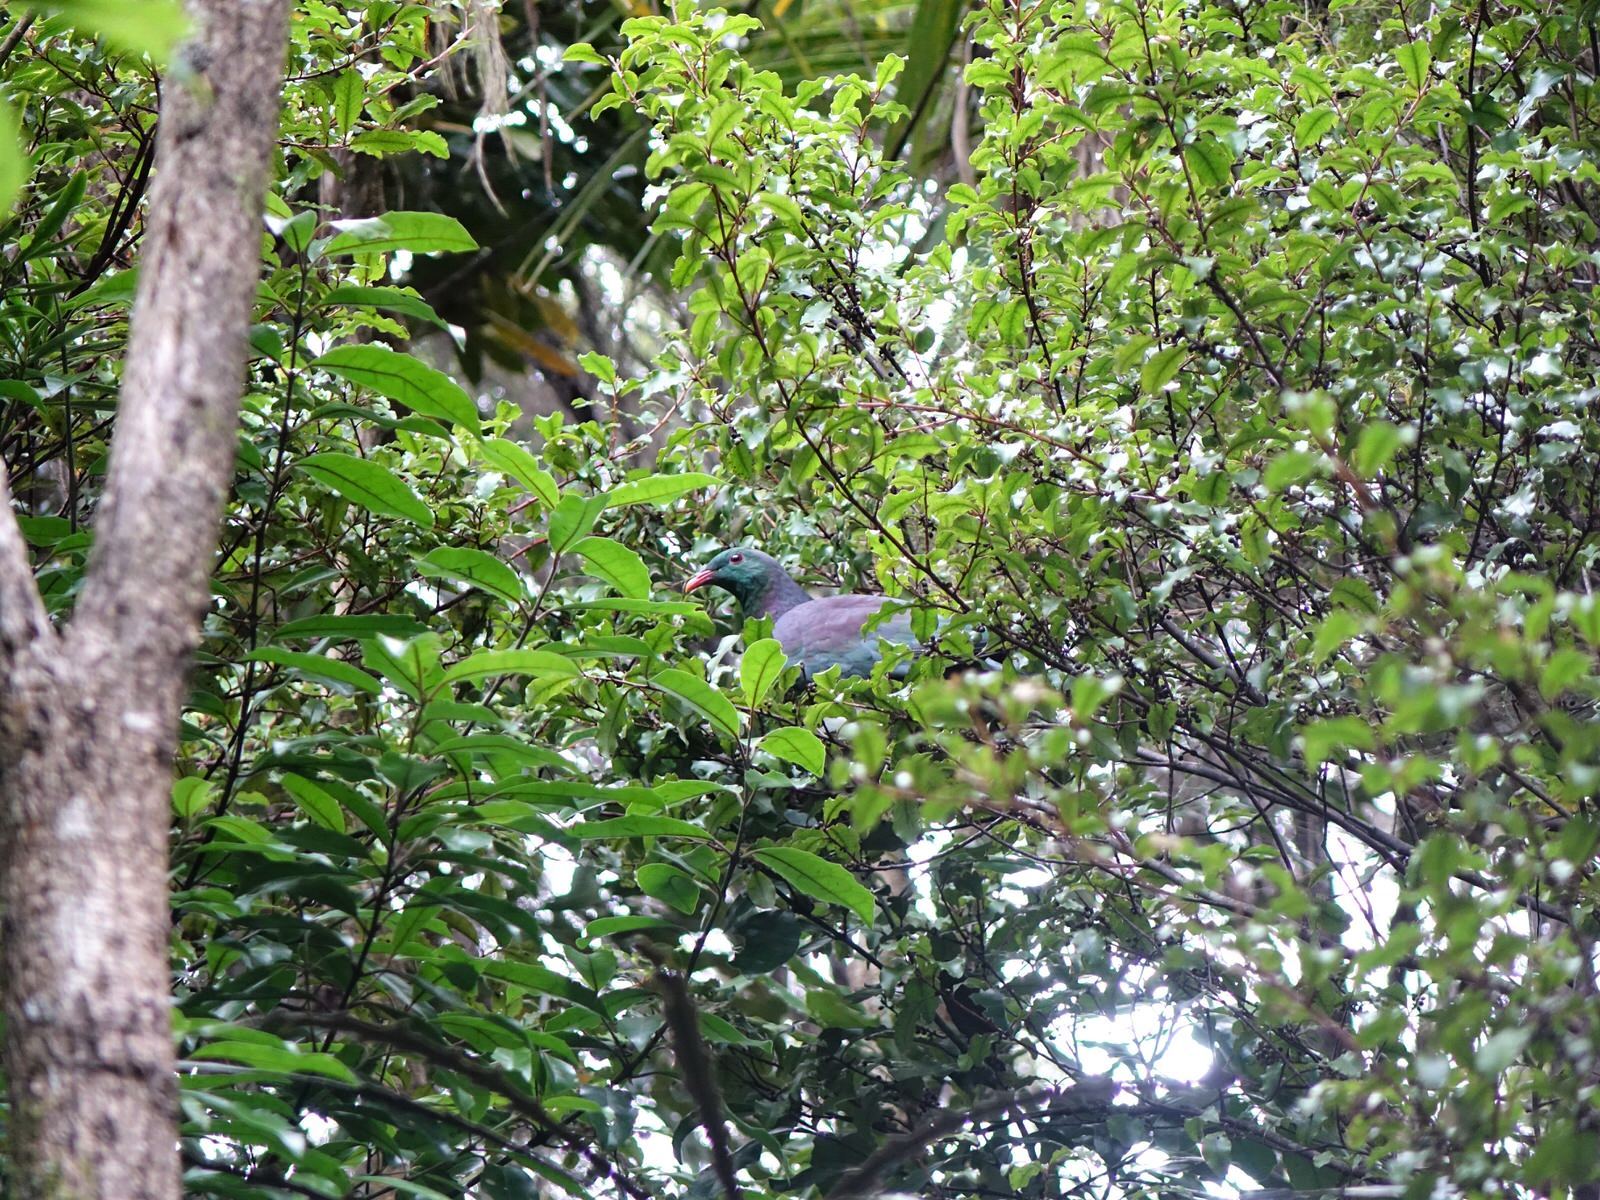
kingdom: Animalia
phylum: Chordata
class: Aves
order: Columbiformes
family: Columbidae
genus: Hemiphaga
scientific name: Hemiphaga novaeseelandiae
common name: New zealand pigeon
